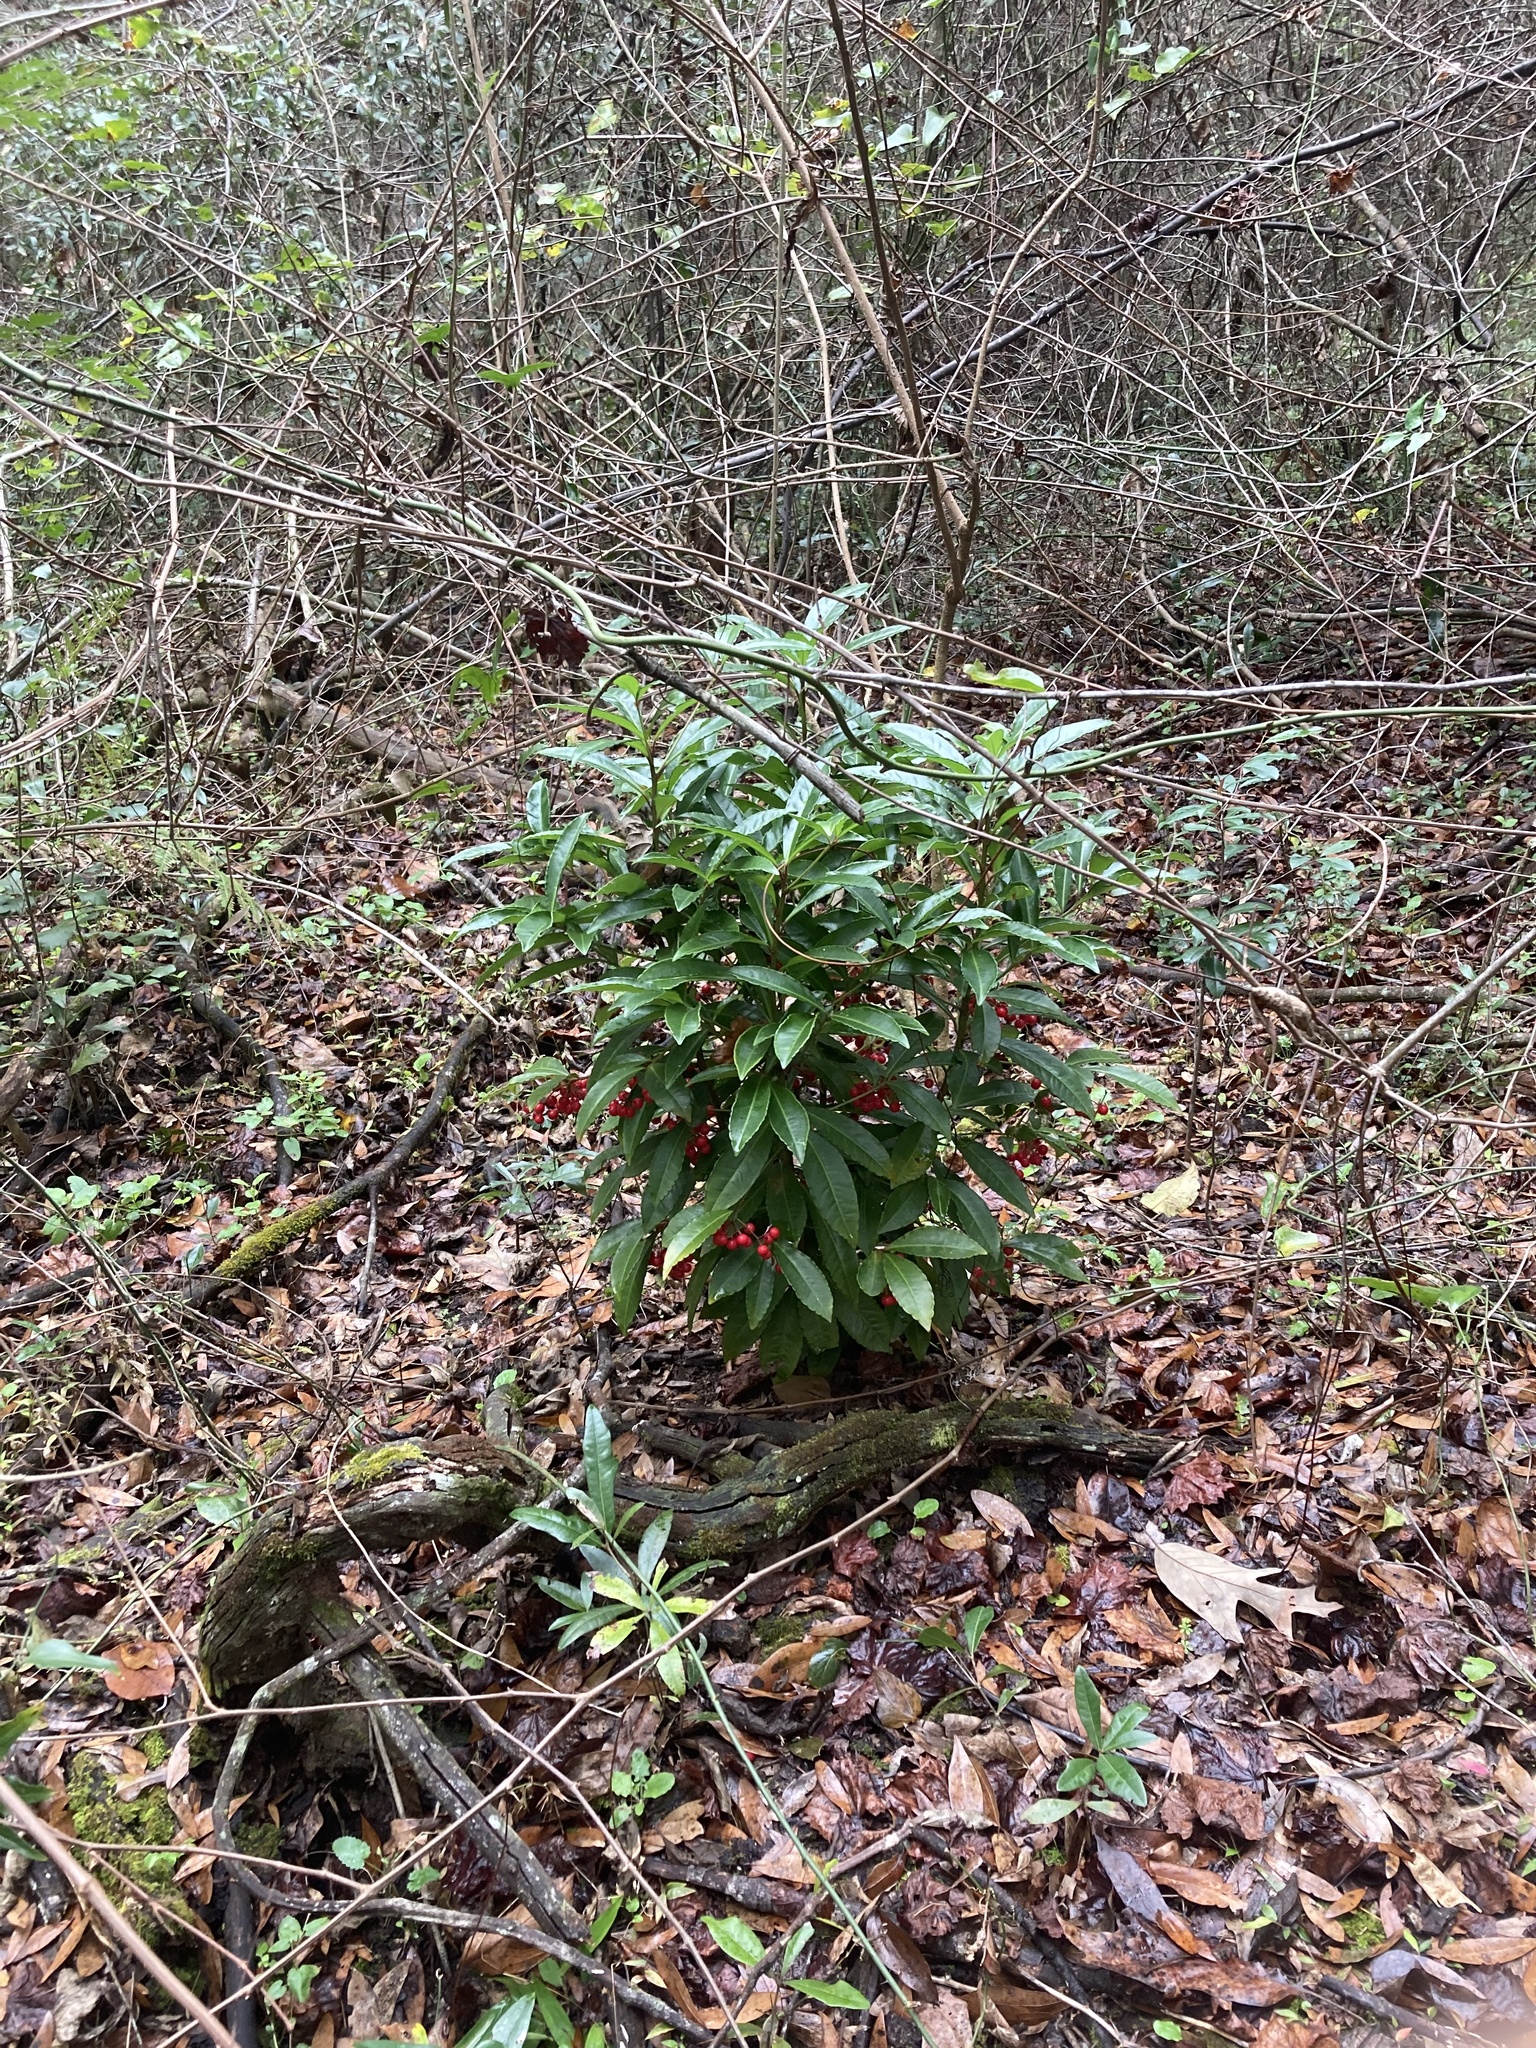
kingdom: Plantae
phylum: Tracheophyta
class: Magnoliopsida
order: Ericales
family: Primulaceae
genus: Ardisia
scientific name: Ardisia crenata
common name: Hen's eyes
